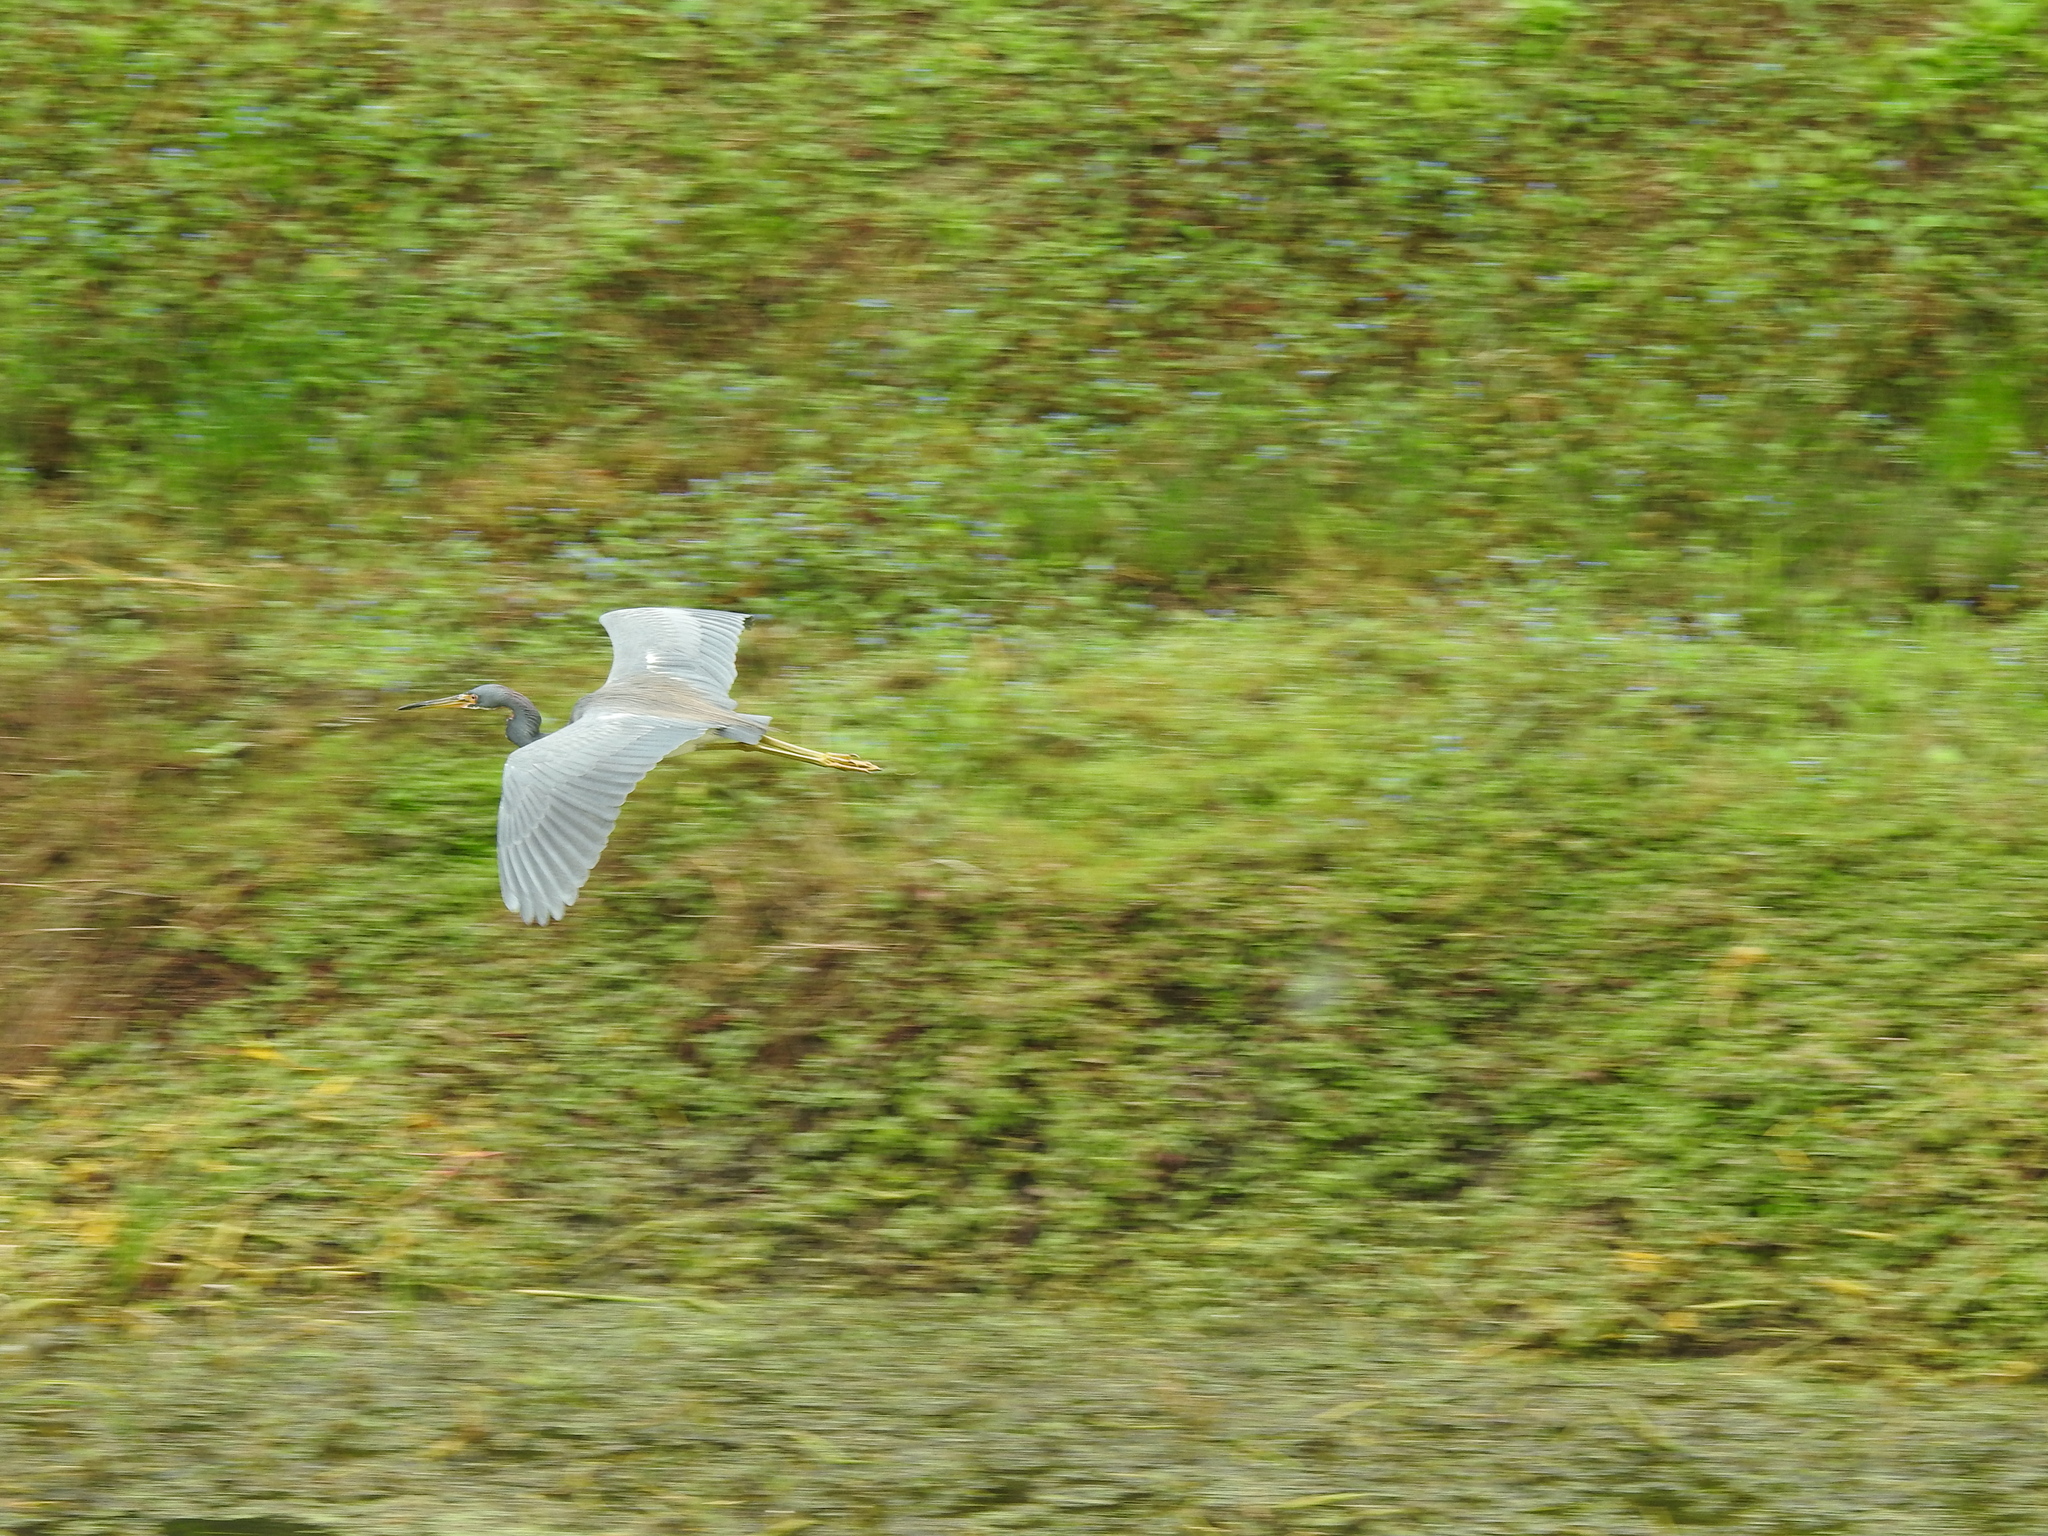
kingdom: Animalia
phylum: Chordata
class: Aves
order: Pelecaniformes
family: Ardeidae
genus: Egretta
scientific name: Egretta tricolor
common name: Tricolored heron
